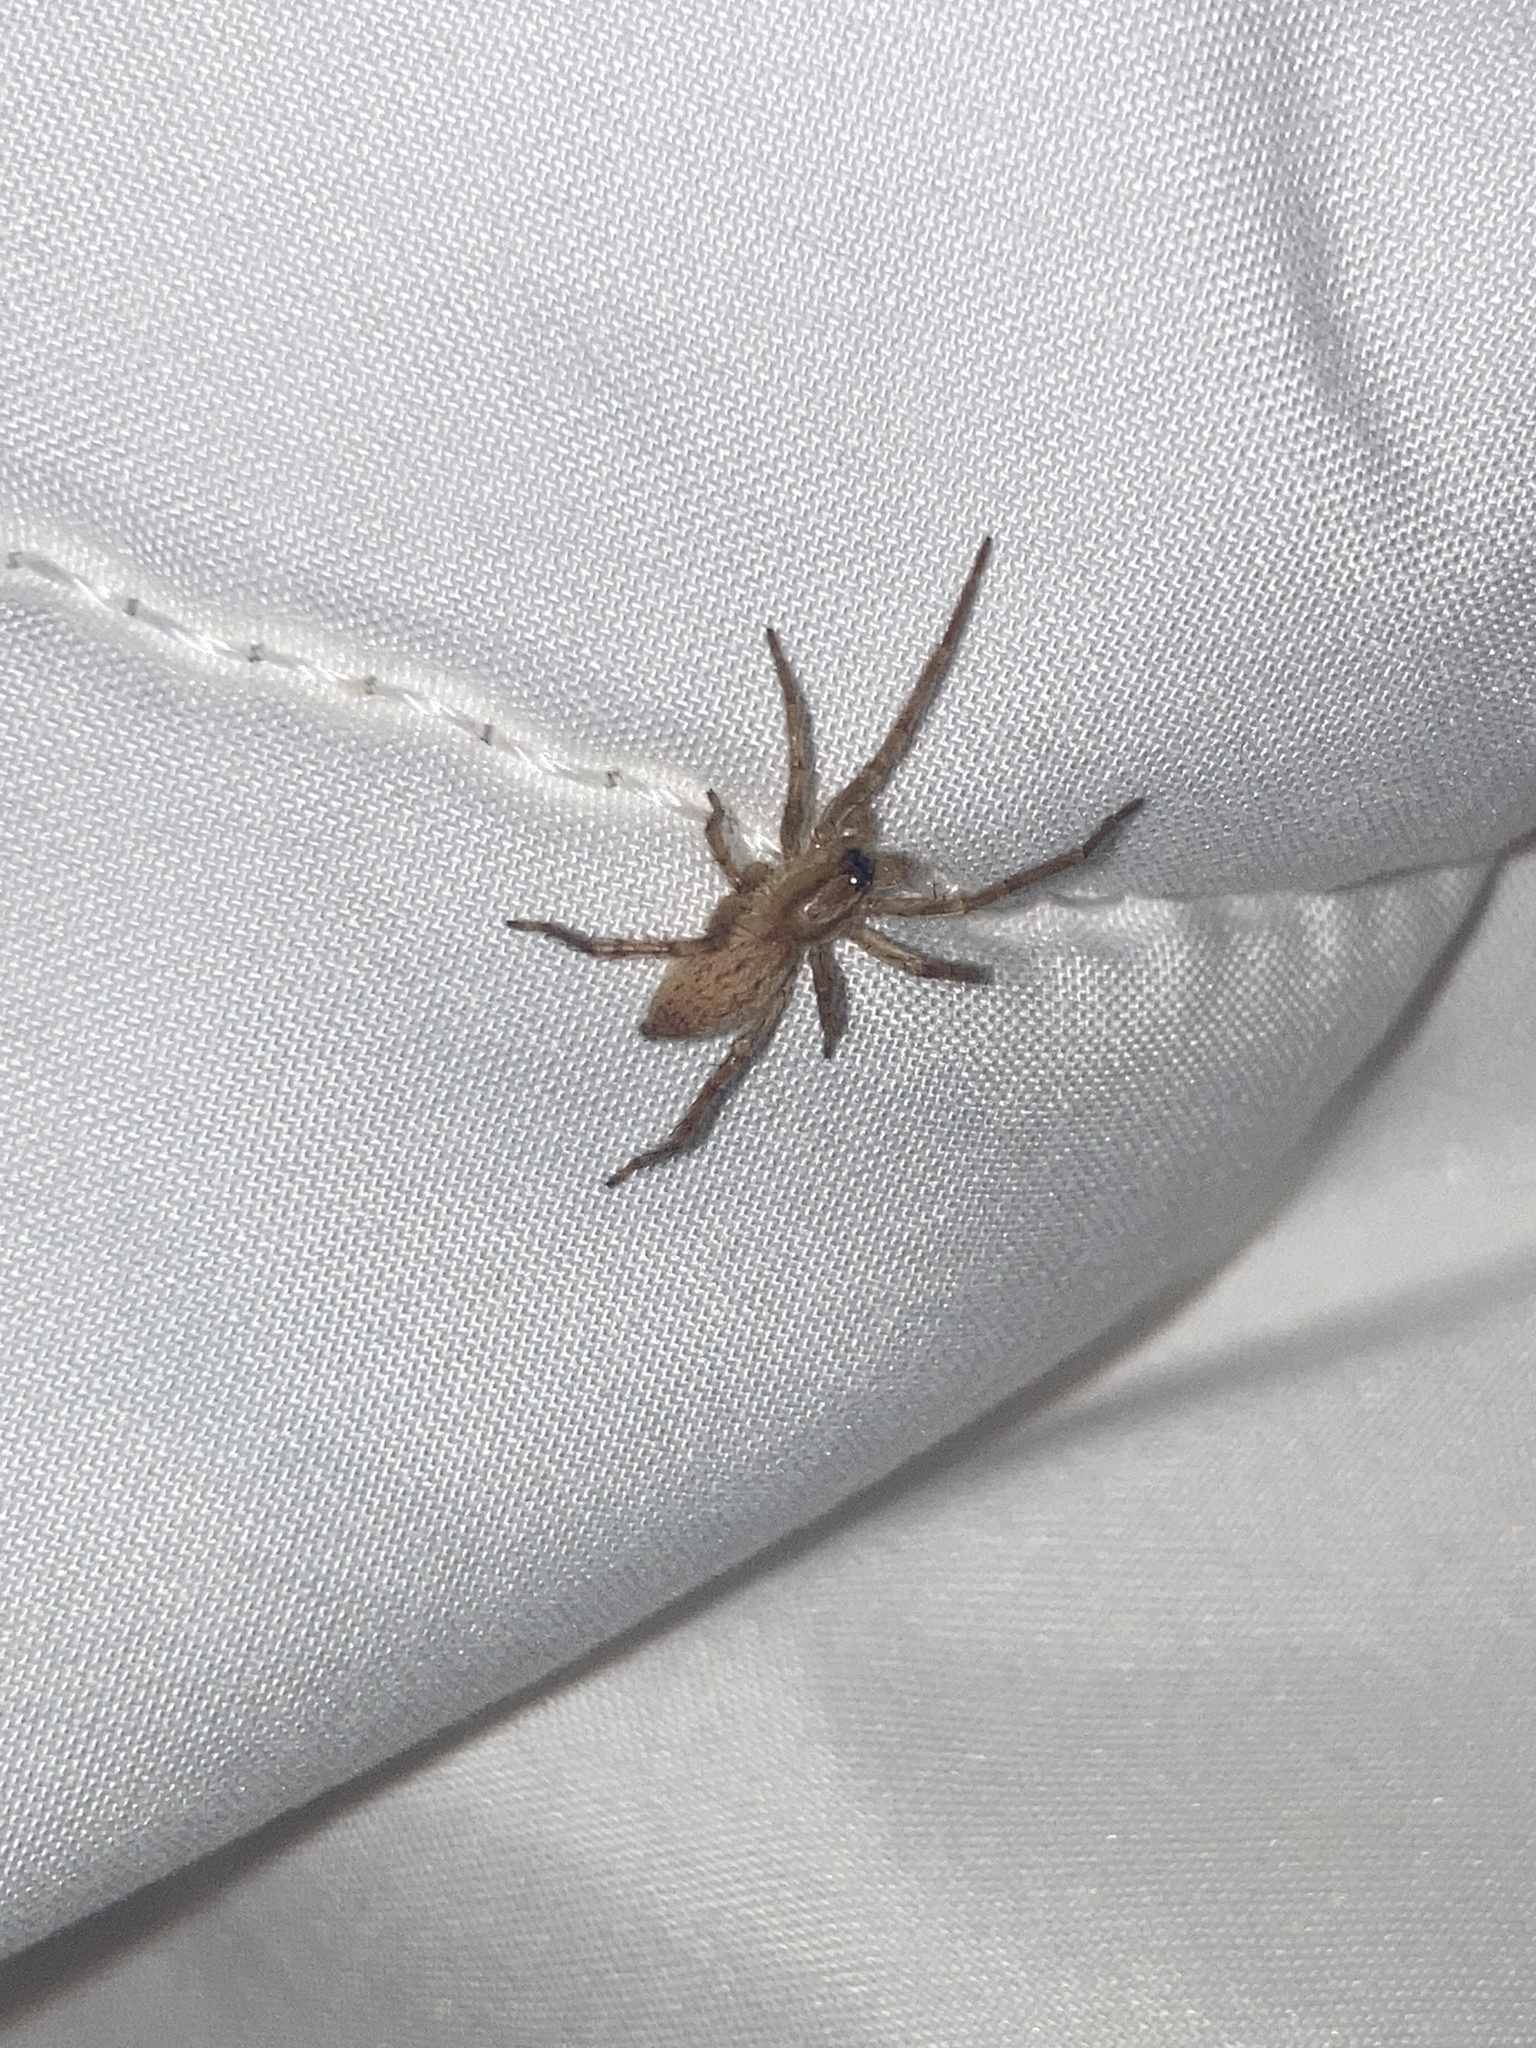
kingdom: Animalia
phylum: Arthropoda
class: Arachnida
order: Araneae
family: Anyphaenidae
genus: Hibana
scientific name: Hibana gracilis
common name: Garden ghost spider
